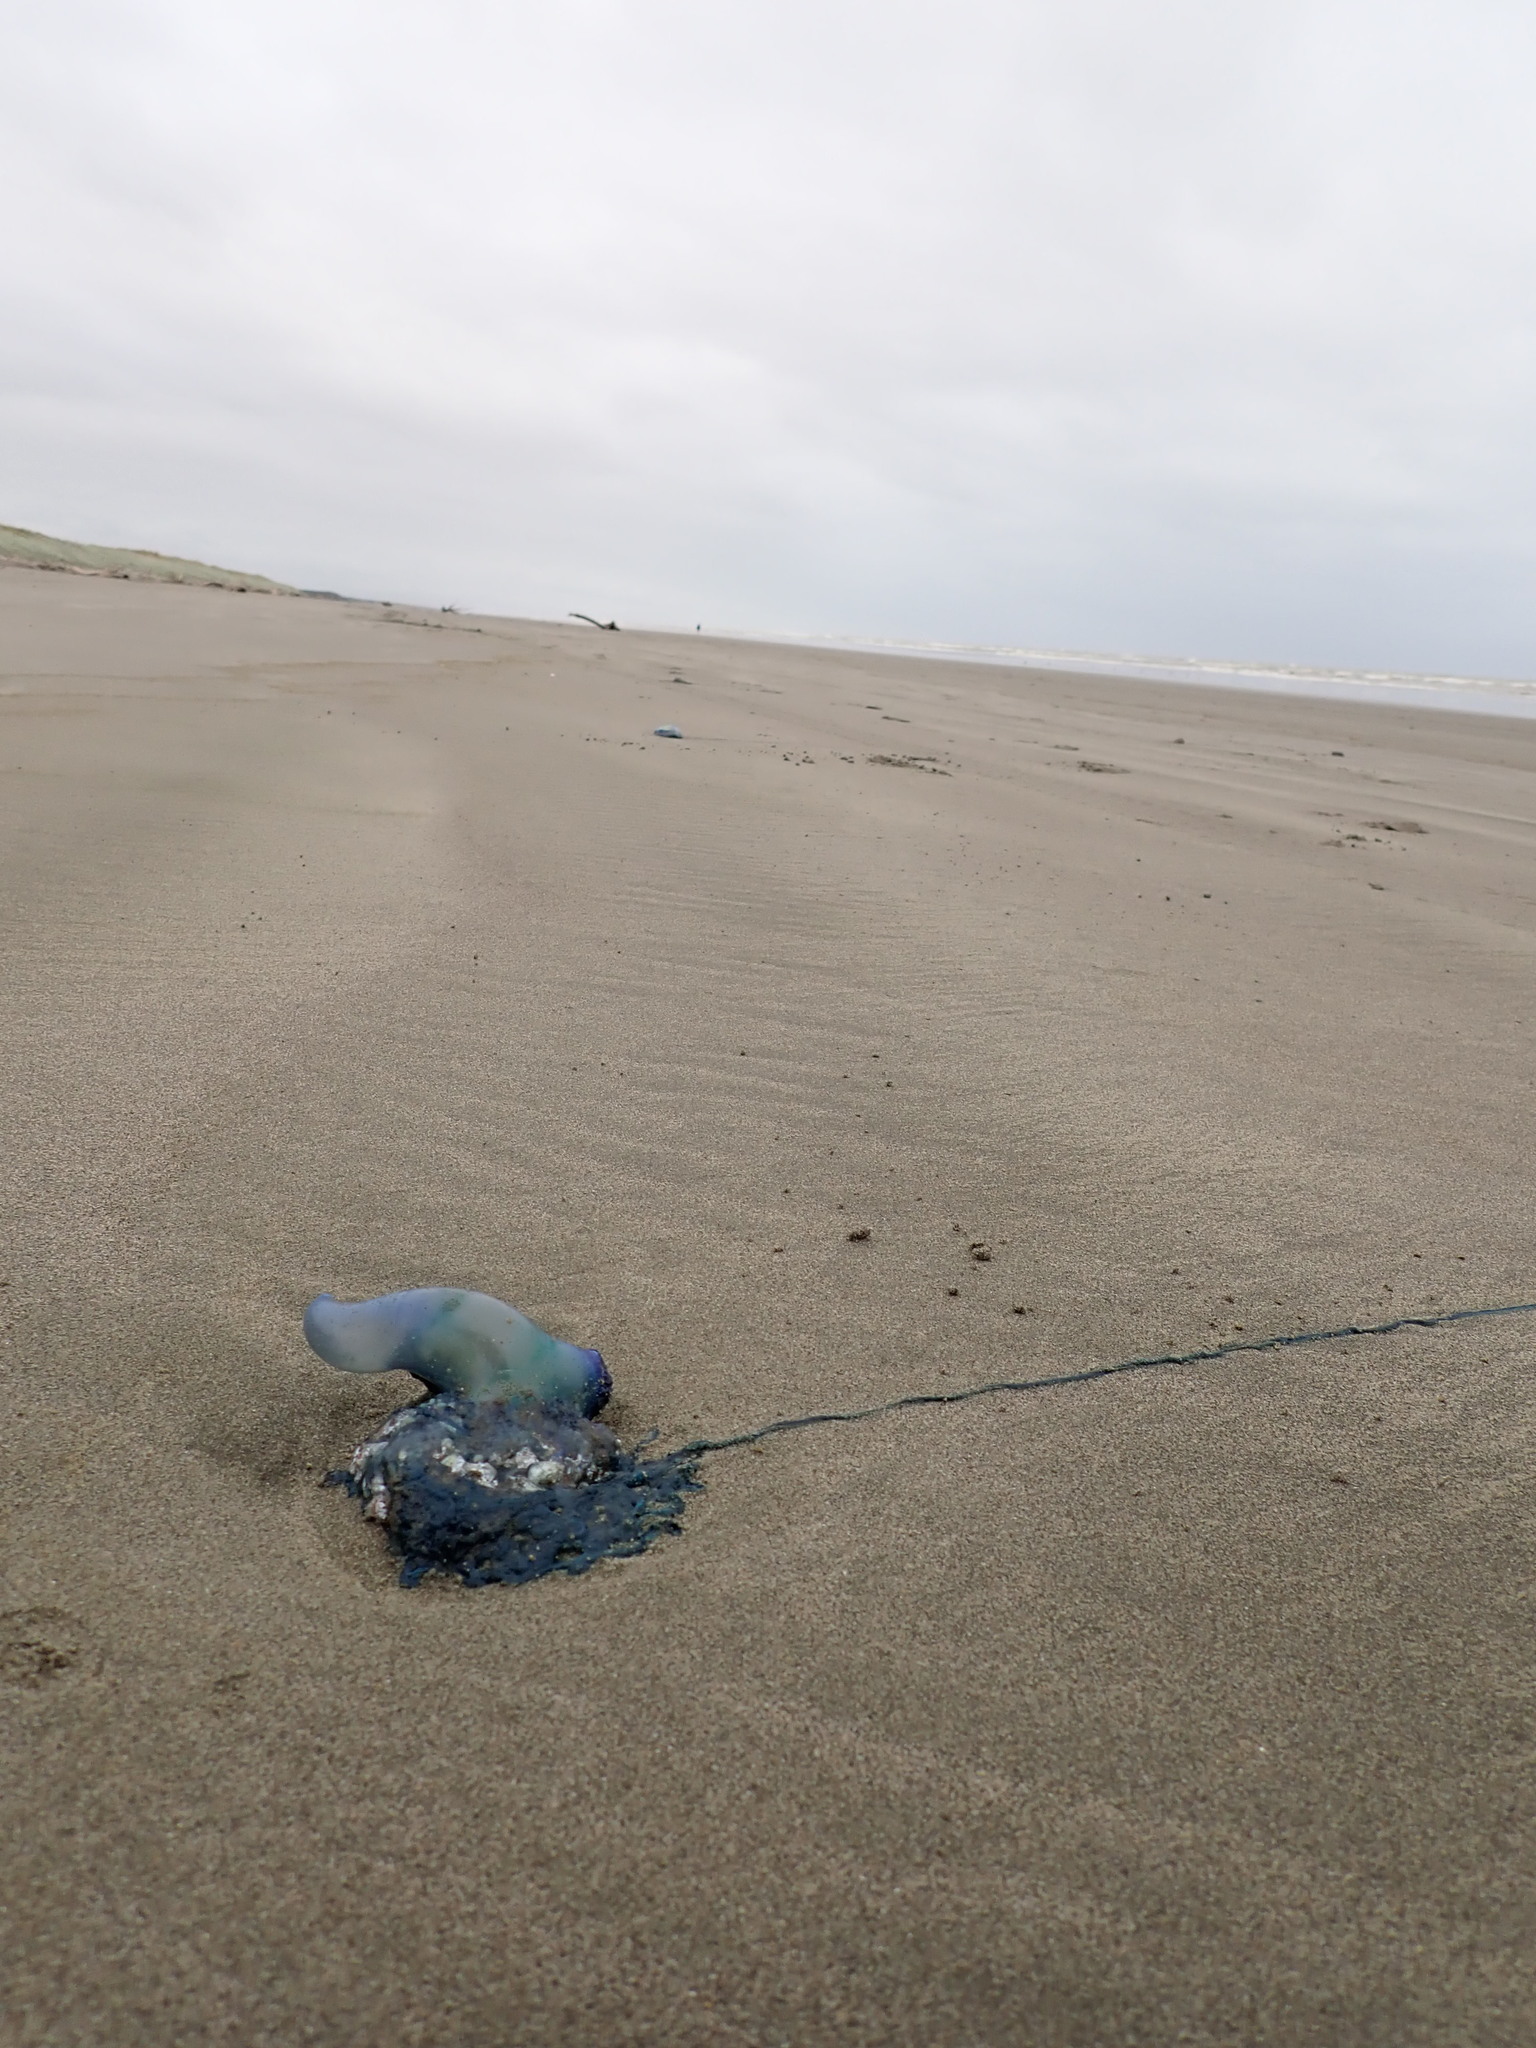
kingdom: Animalia
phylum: Cnidaria
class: Hydrozoa
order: Siphonophorae
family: Physaliidae
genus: Physalia
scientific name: Physalia physalis
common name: Portuguese man-of-war
